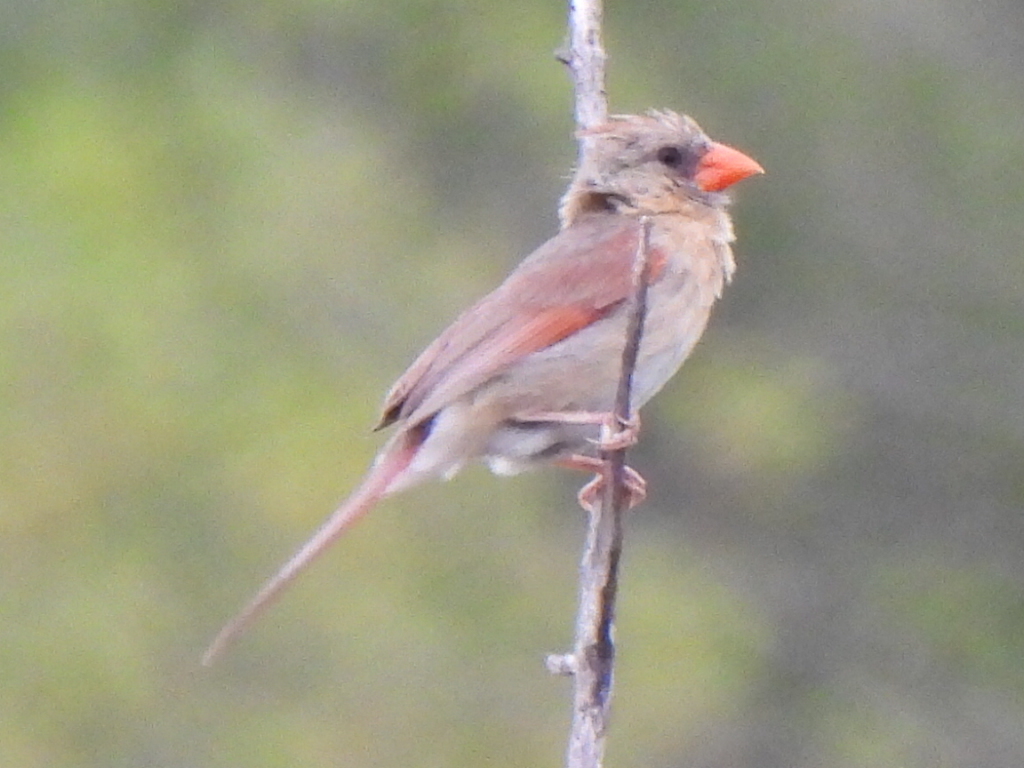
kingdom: Animalia
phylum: Chordata
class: Aves
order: Passeriformes
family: Cardinalidae
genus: Cardinalis
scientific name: Cardinalis cardinalis
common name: Northern cardinal
